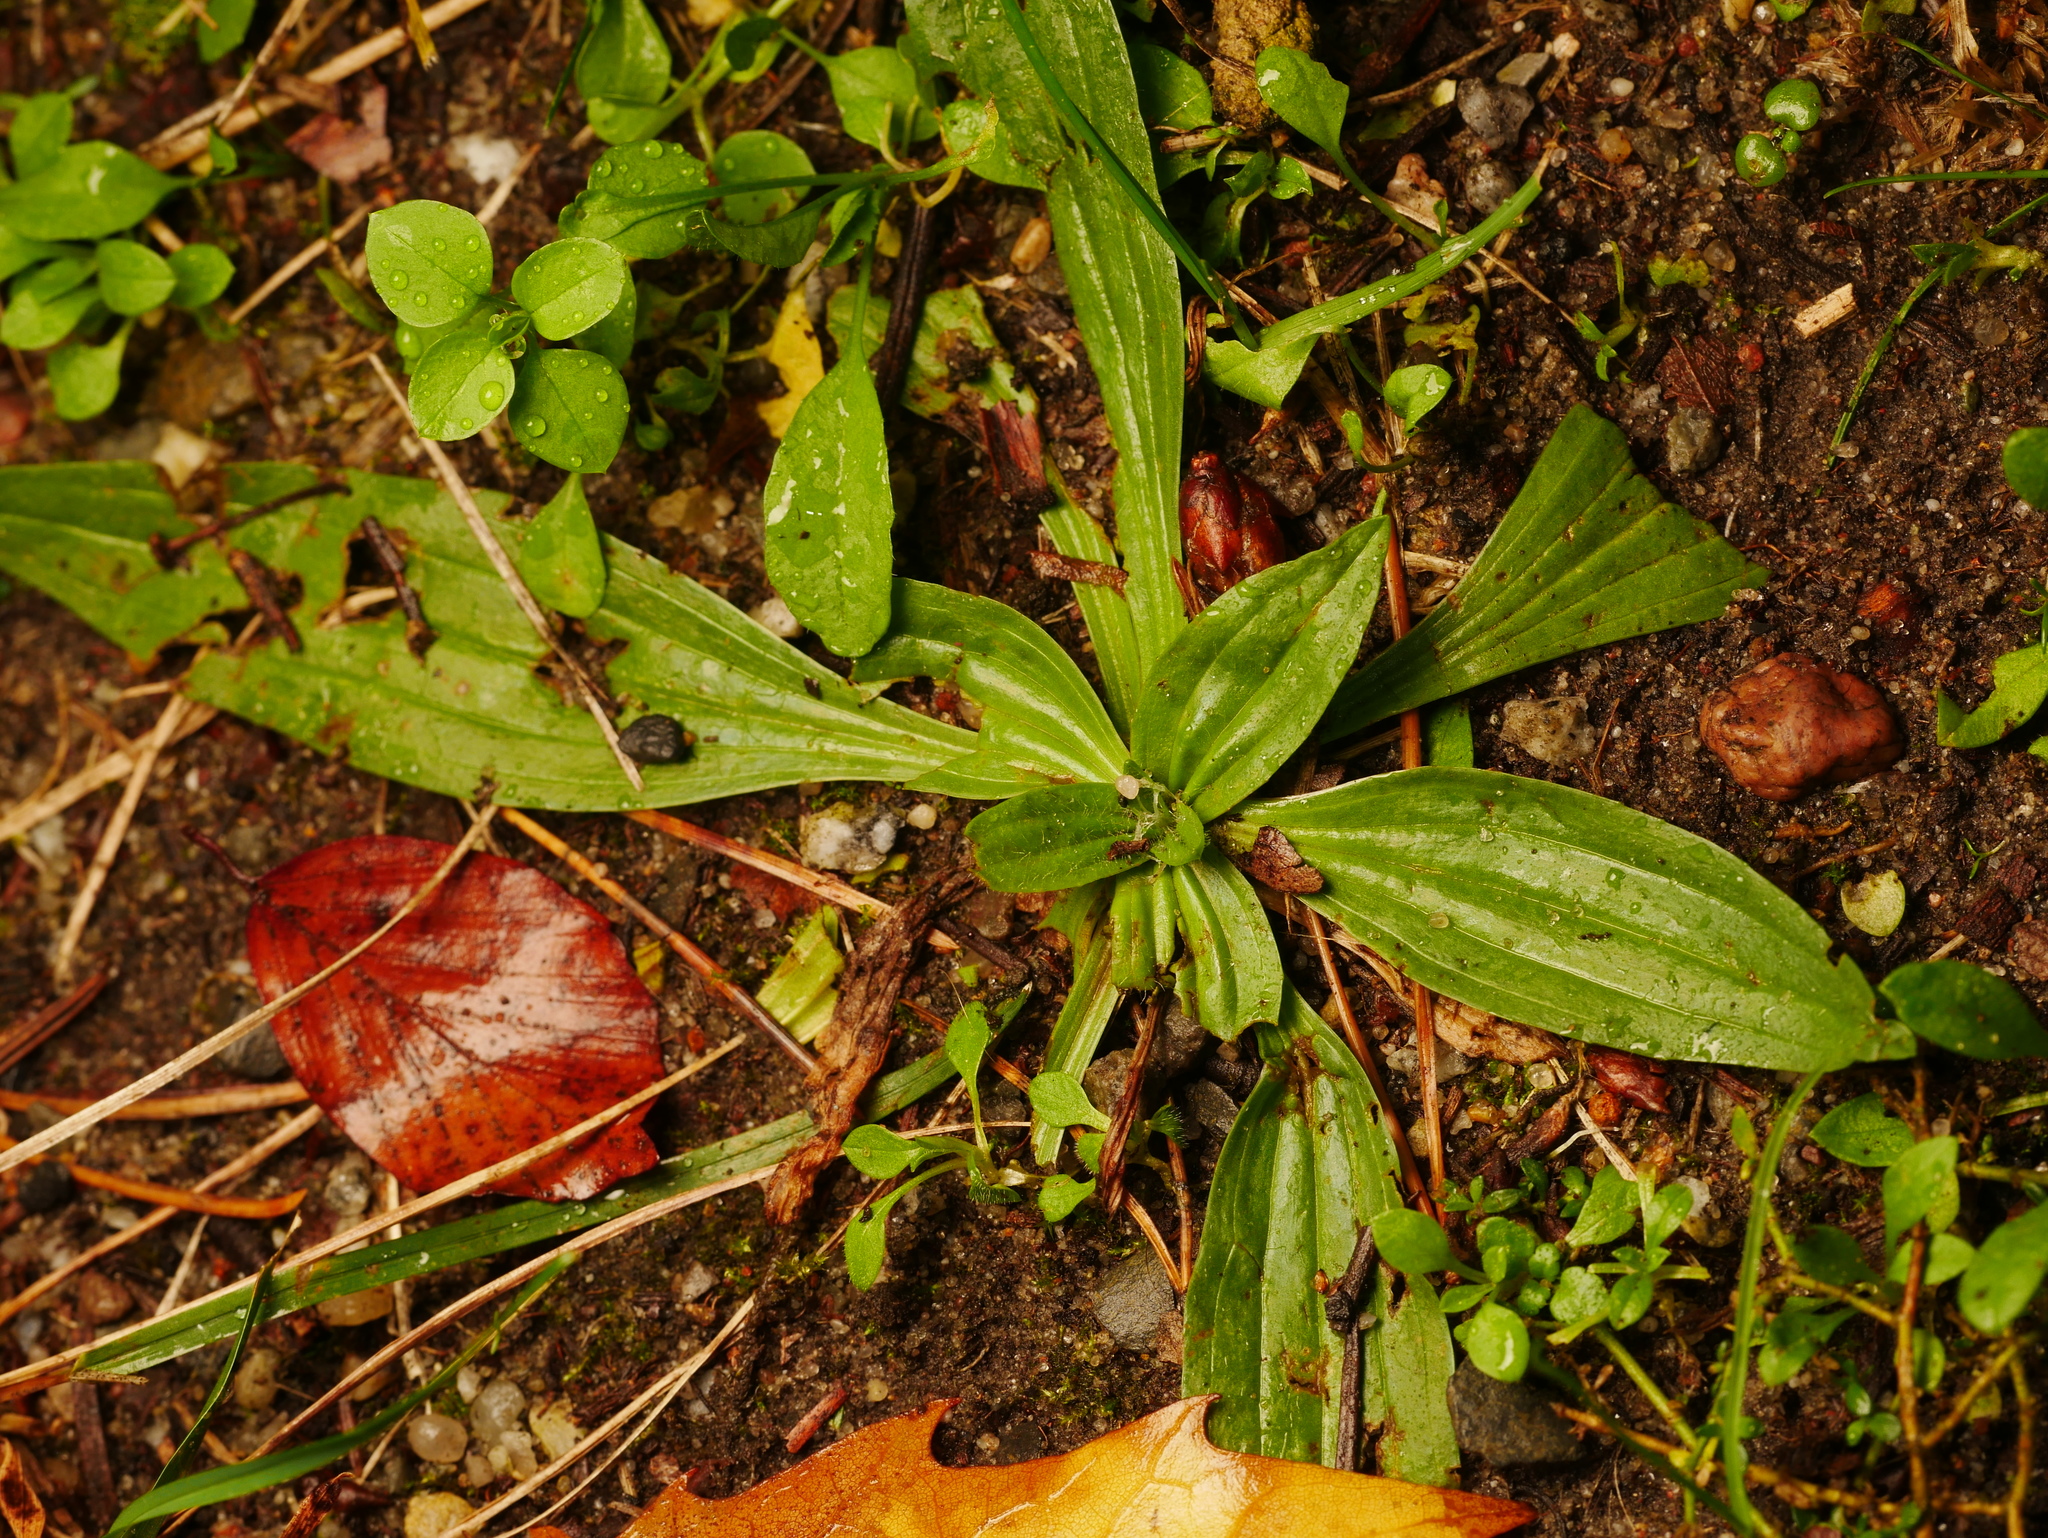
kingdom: Plantae
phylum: Tracheophyta
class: Magnoliopsida
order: Lamiales
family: Plantaginaceae
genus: Plantago
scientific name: Plantago lanceolata
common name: Ribwort plantain
